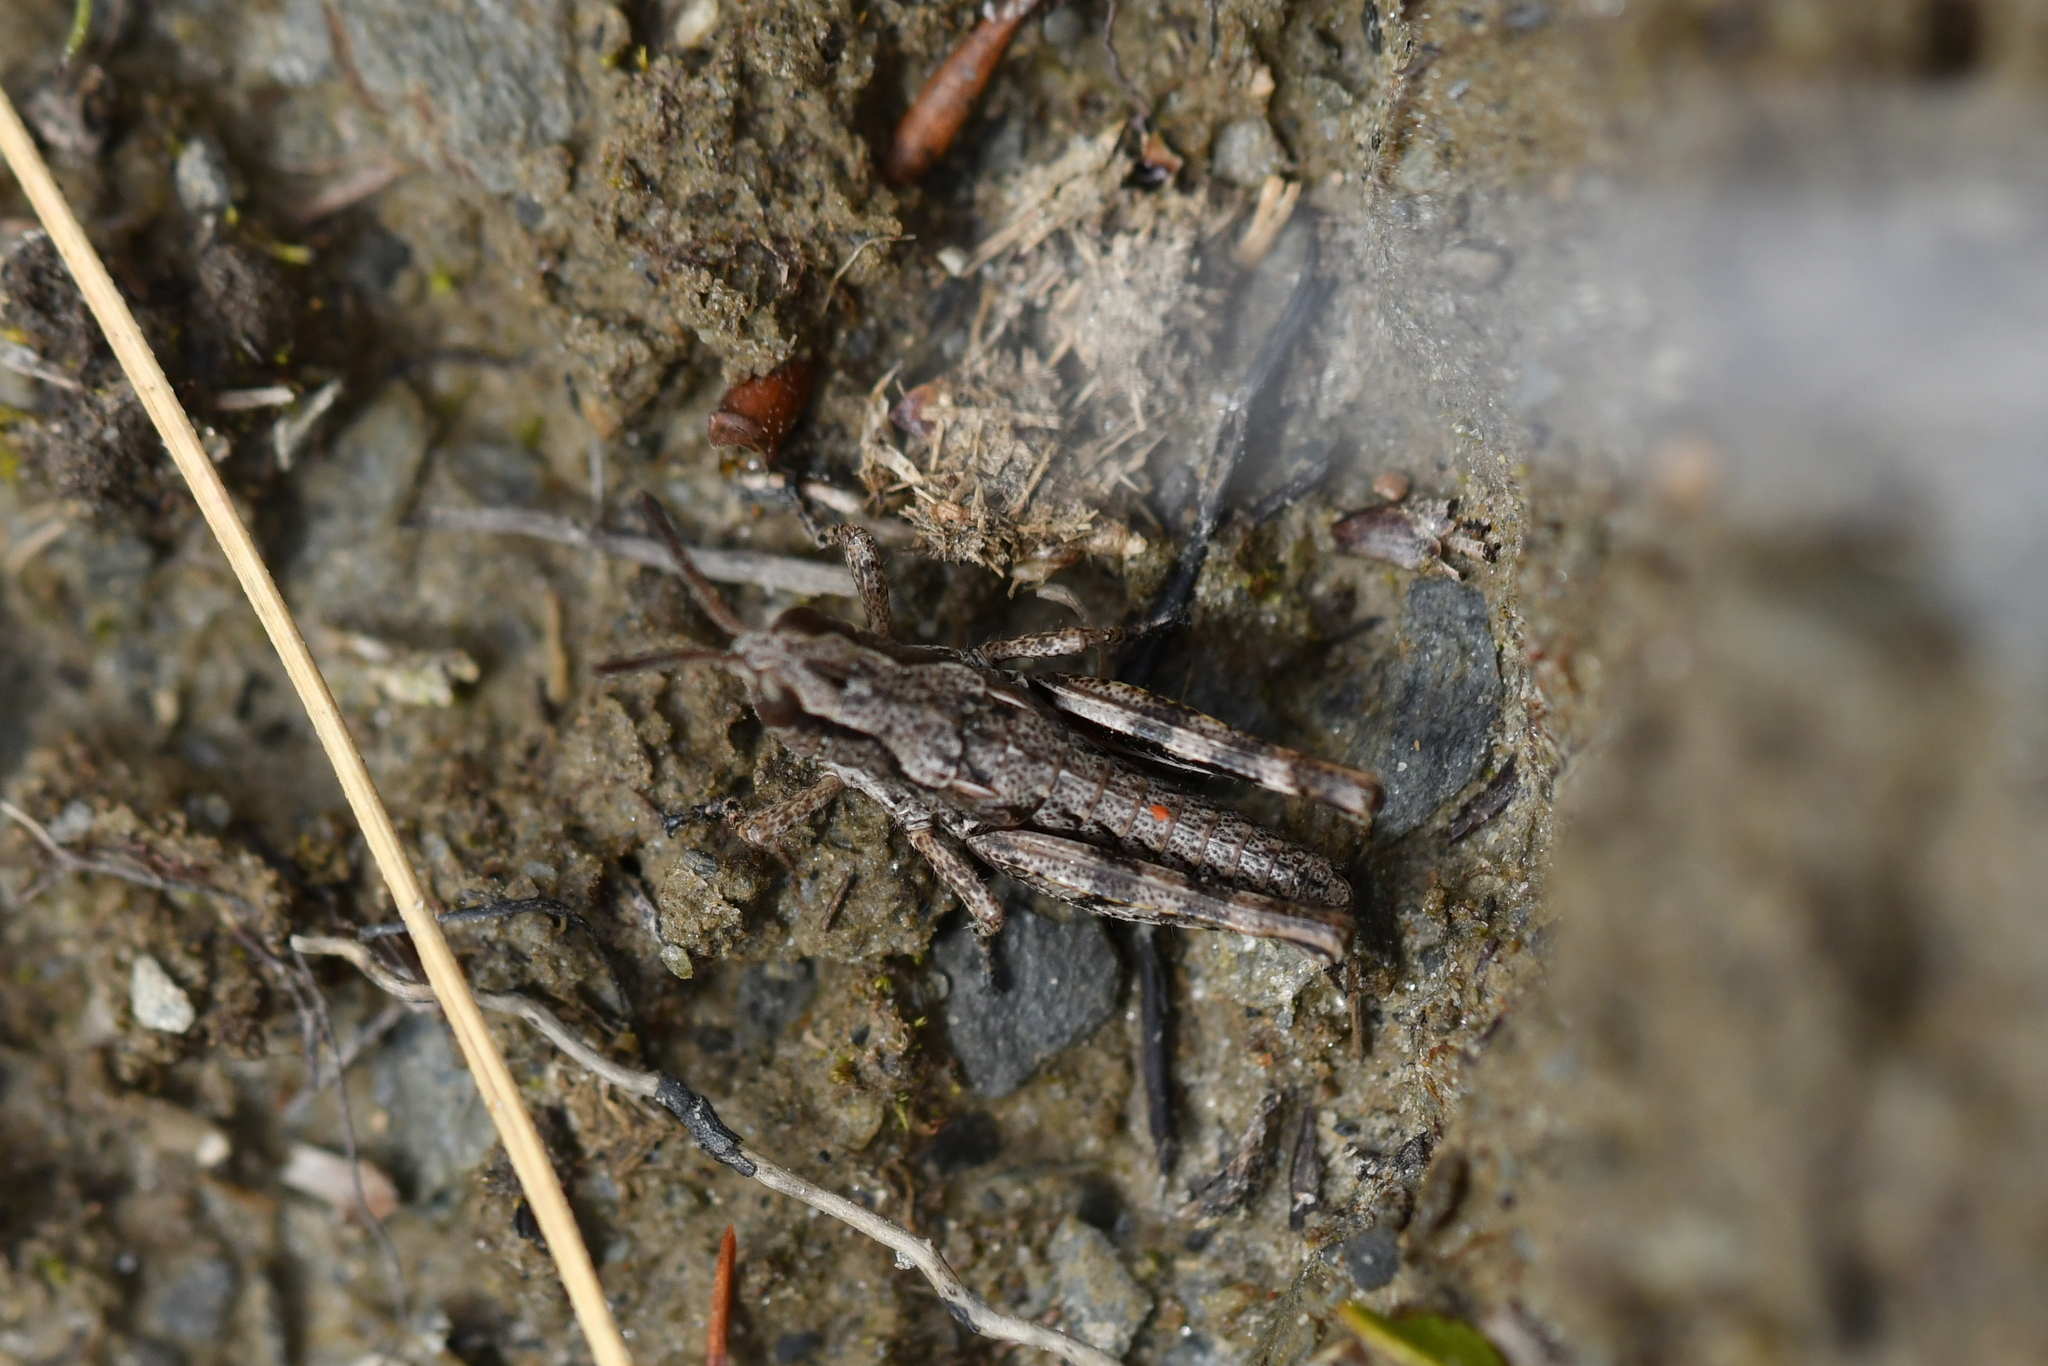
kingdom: Animalia
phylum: Arthropoda
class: Insecta
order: Orthoptera
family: Acrididae
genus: Sigaus
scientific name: Sigaus australis
